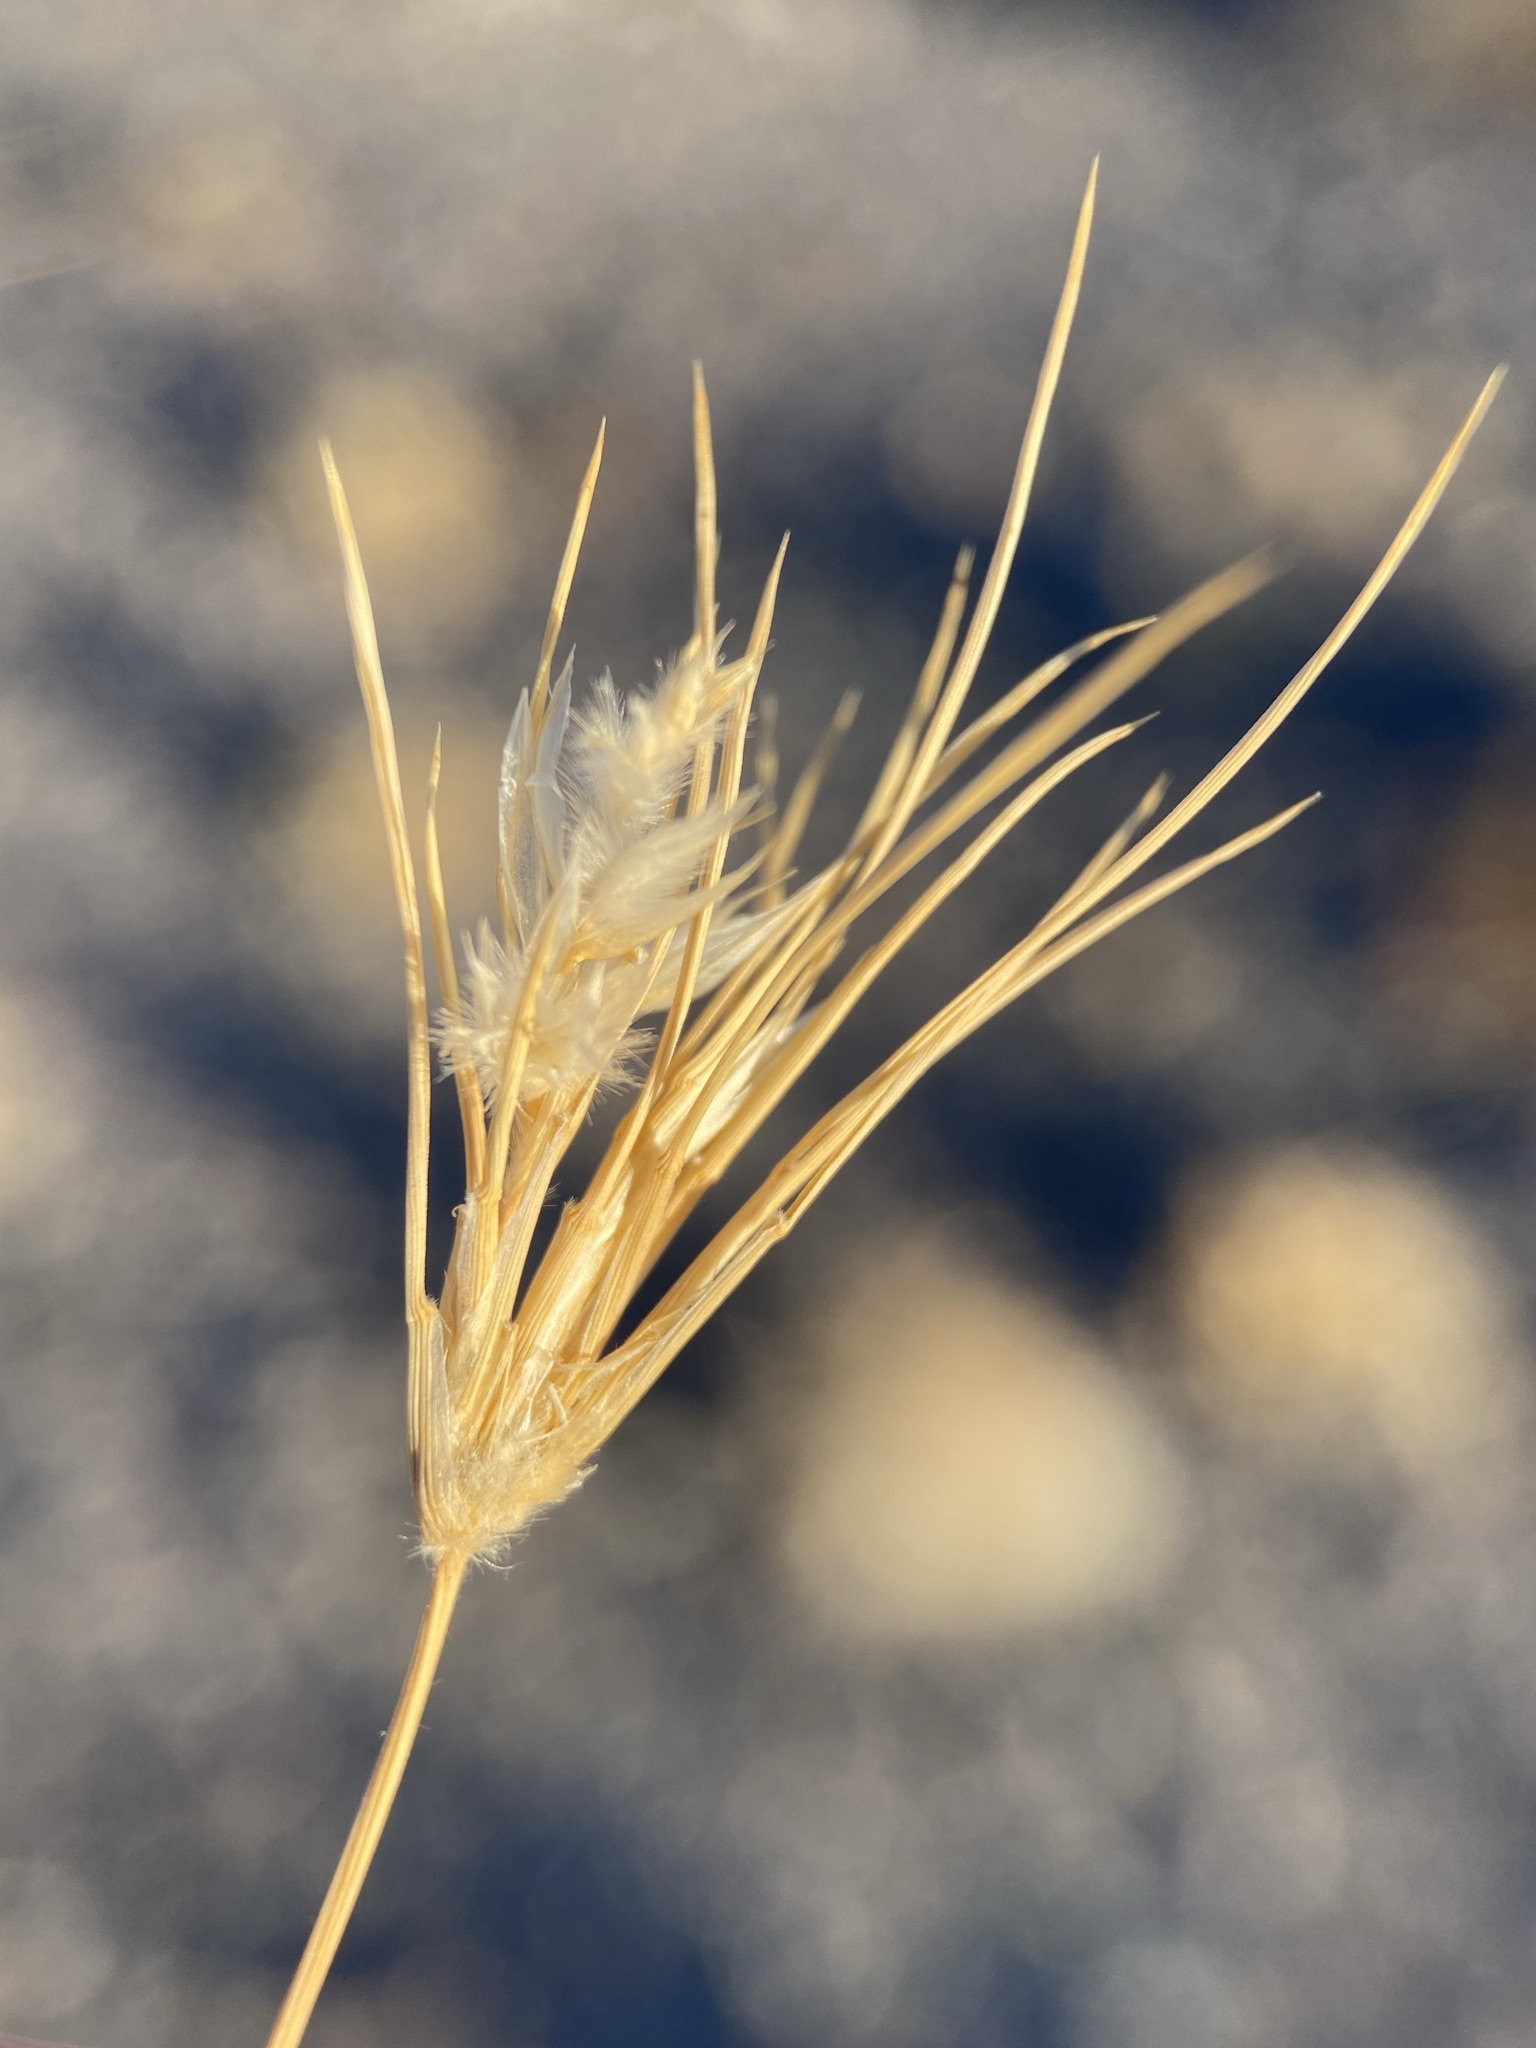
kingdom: Plantae
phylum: Tracheophyta
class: Liliopsida
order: Poales
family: Poaceae
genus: Dasyochloa
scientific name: Dasyochloa pulchella
